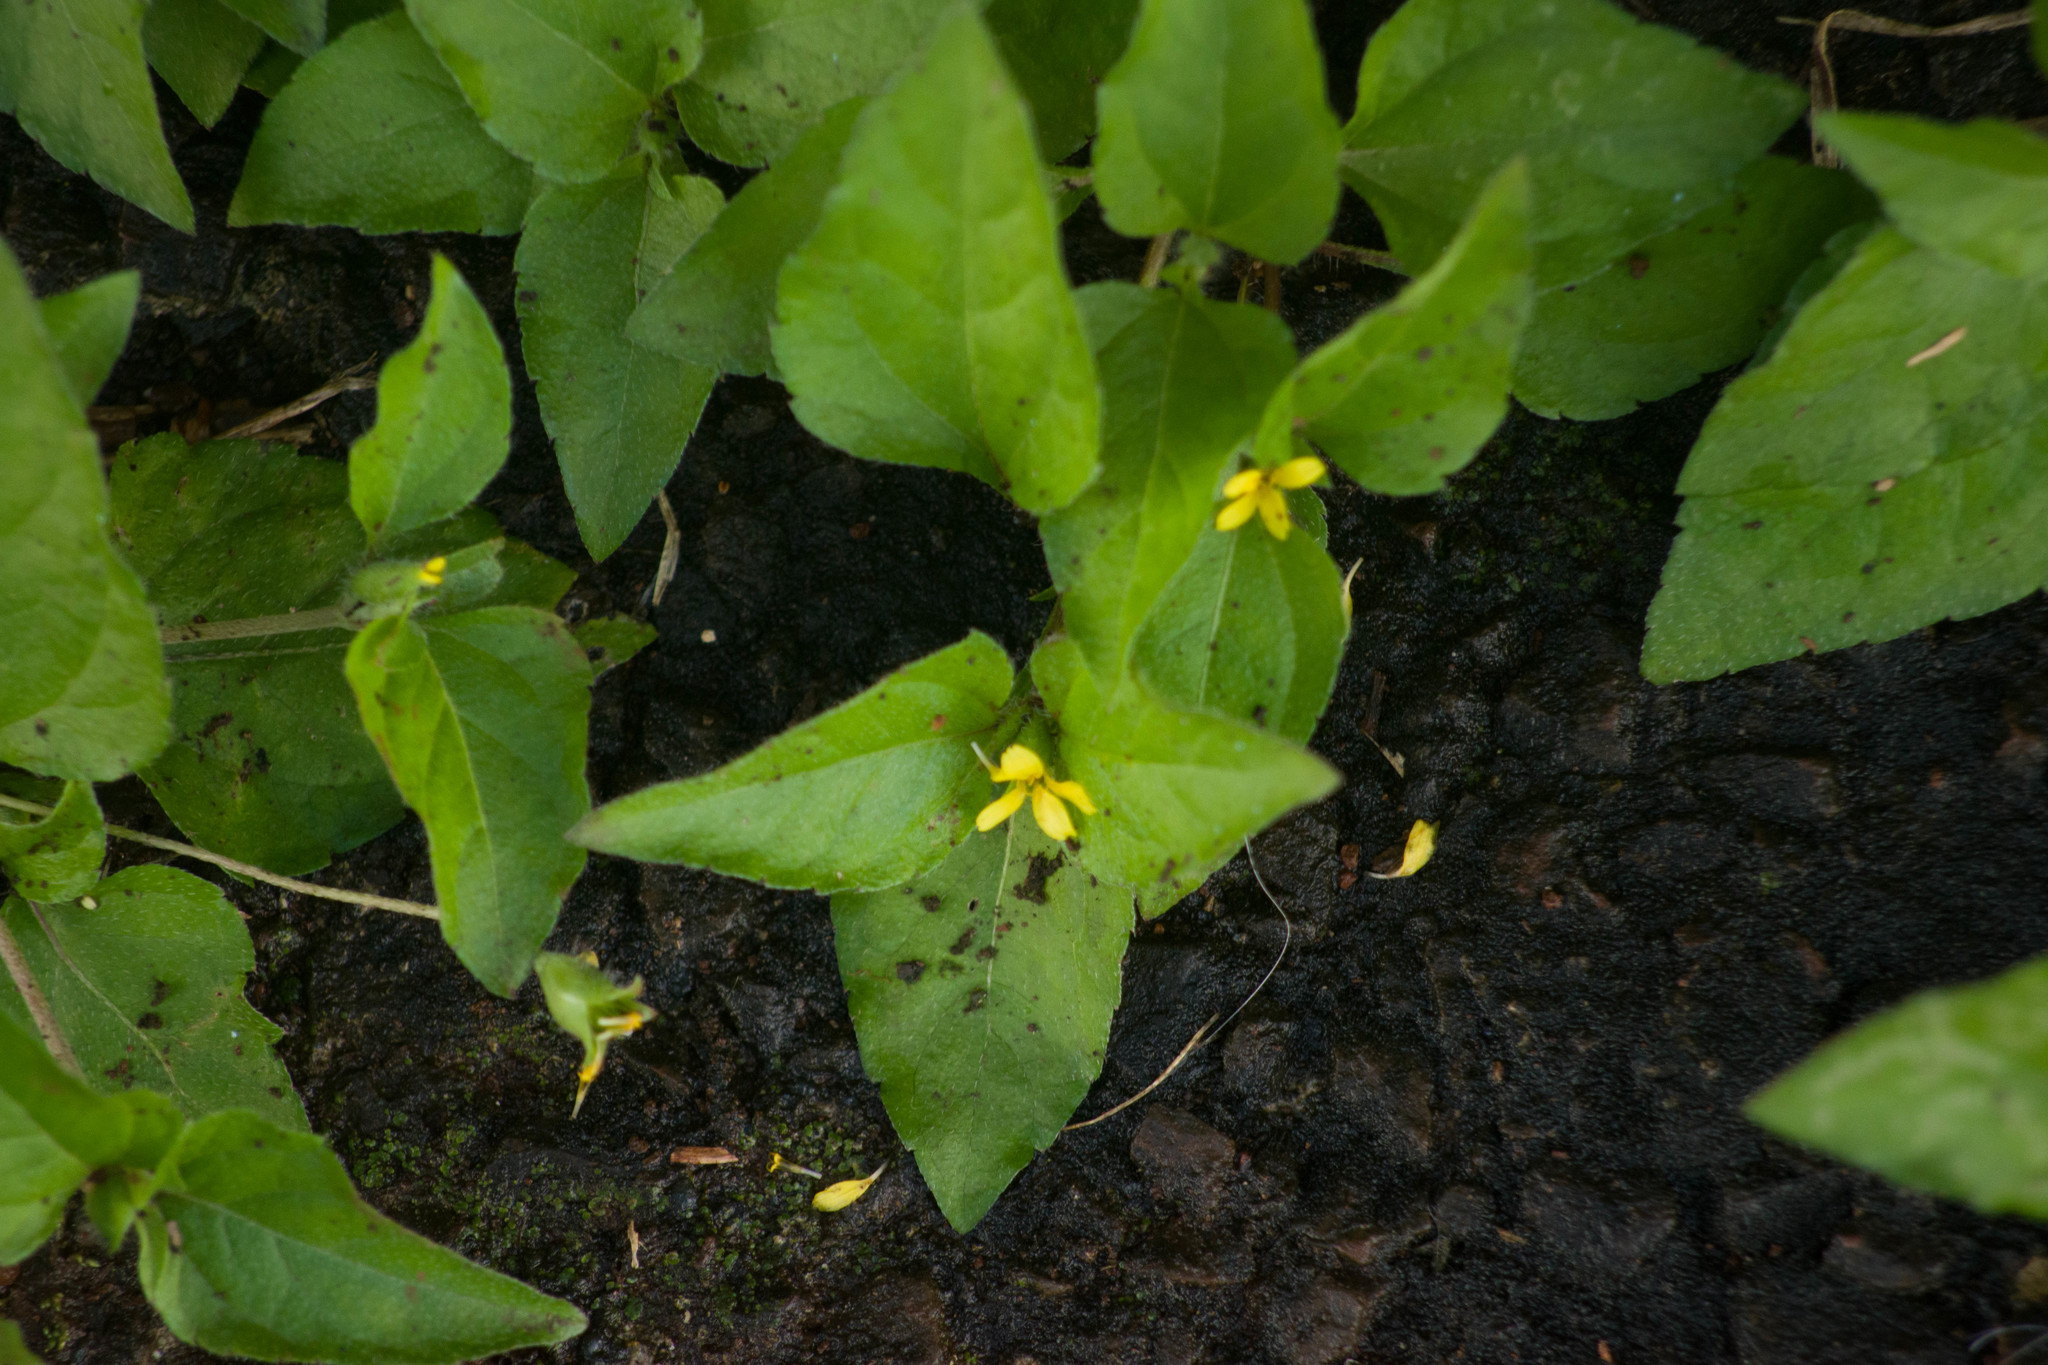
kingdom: Plantae
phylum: Tracheophyta
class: Magnoliopsida
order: Asterales
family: Asteraceae
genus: Calyptocarpus
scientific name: Calyptocarpus vialis
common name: Straggler daisy
